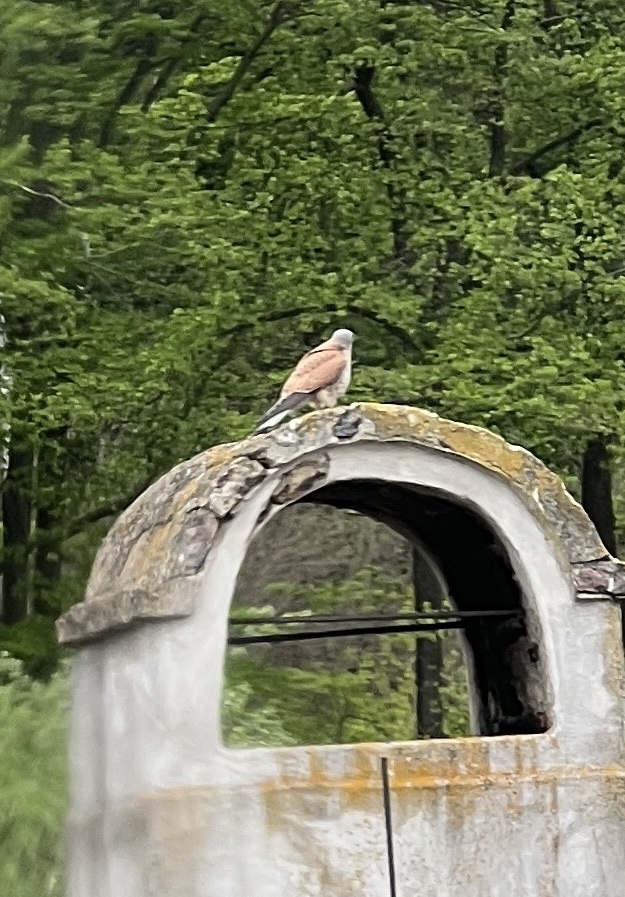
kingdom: Animalia
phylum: Chordata
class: Aves
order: Falconiformes
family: Falconidae
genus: Falco
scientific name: Falco tinnunculus
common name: Common kestrel
